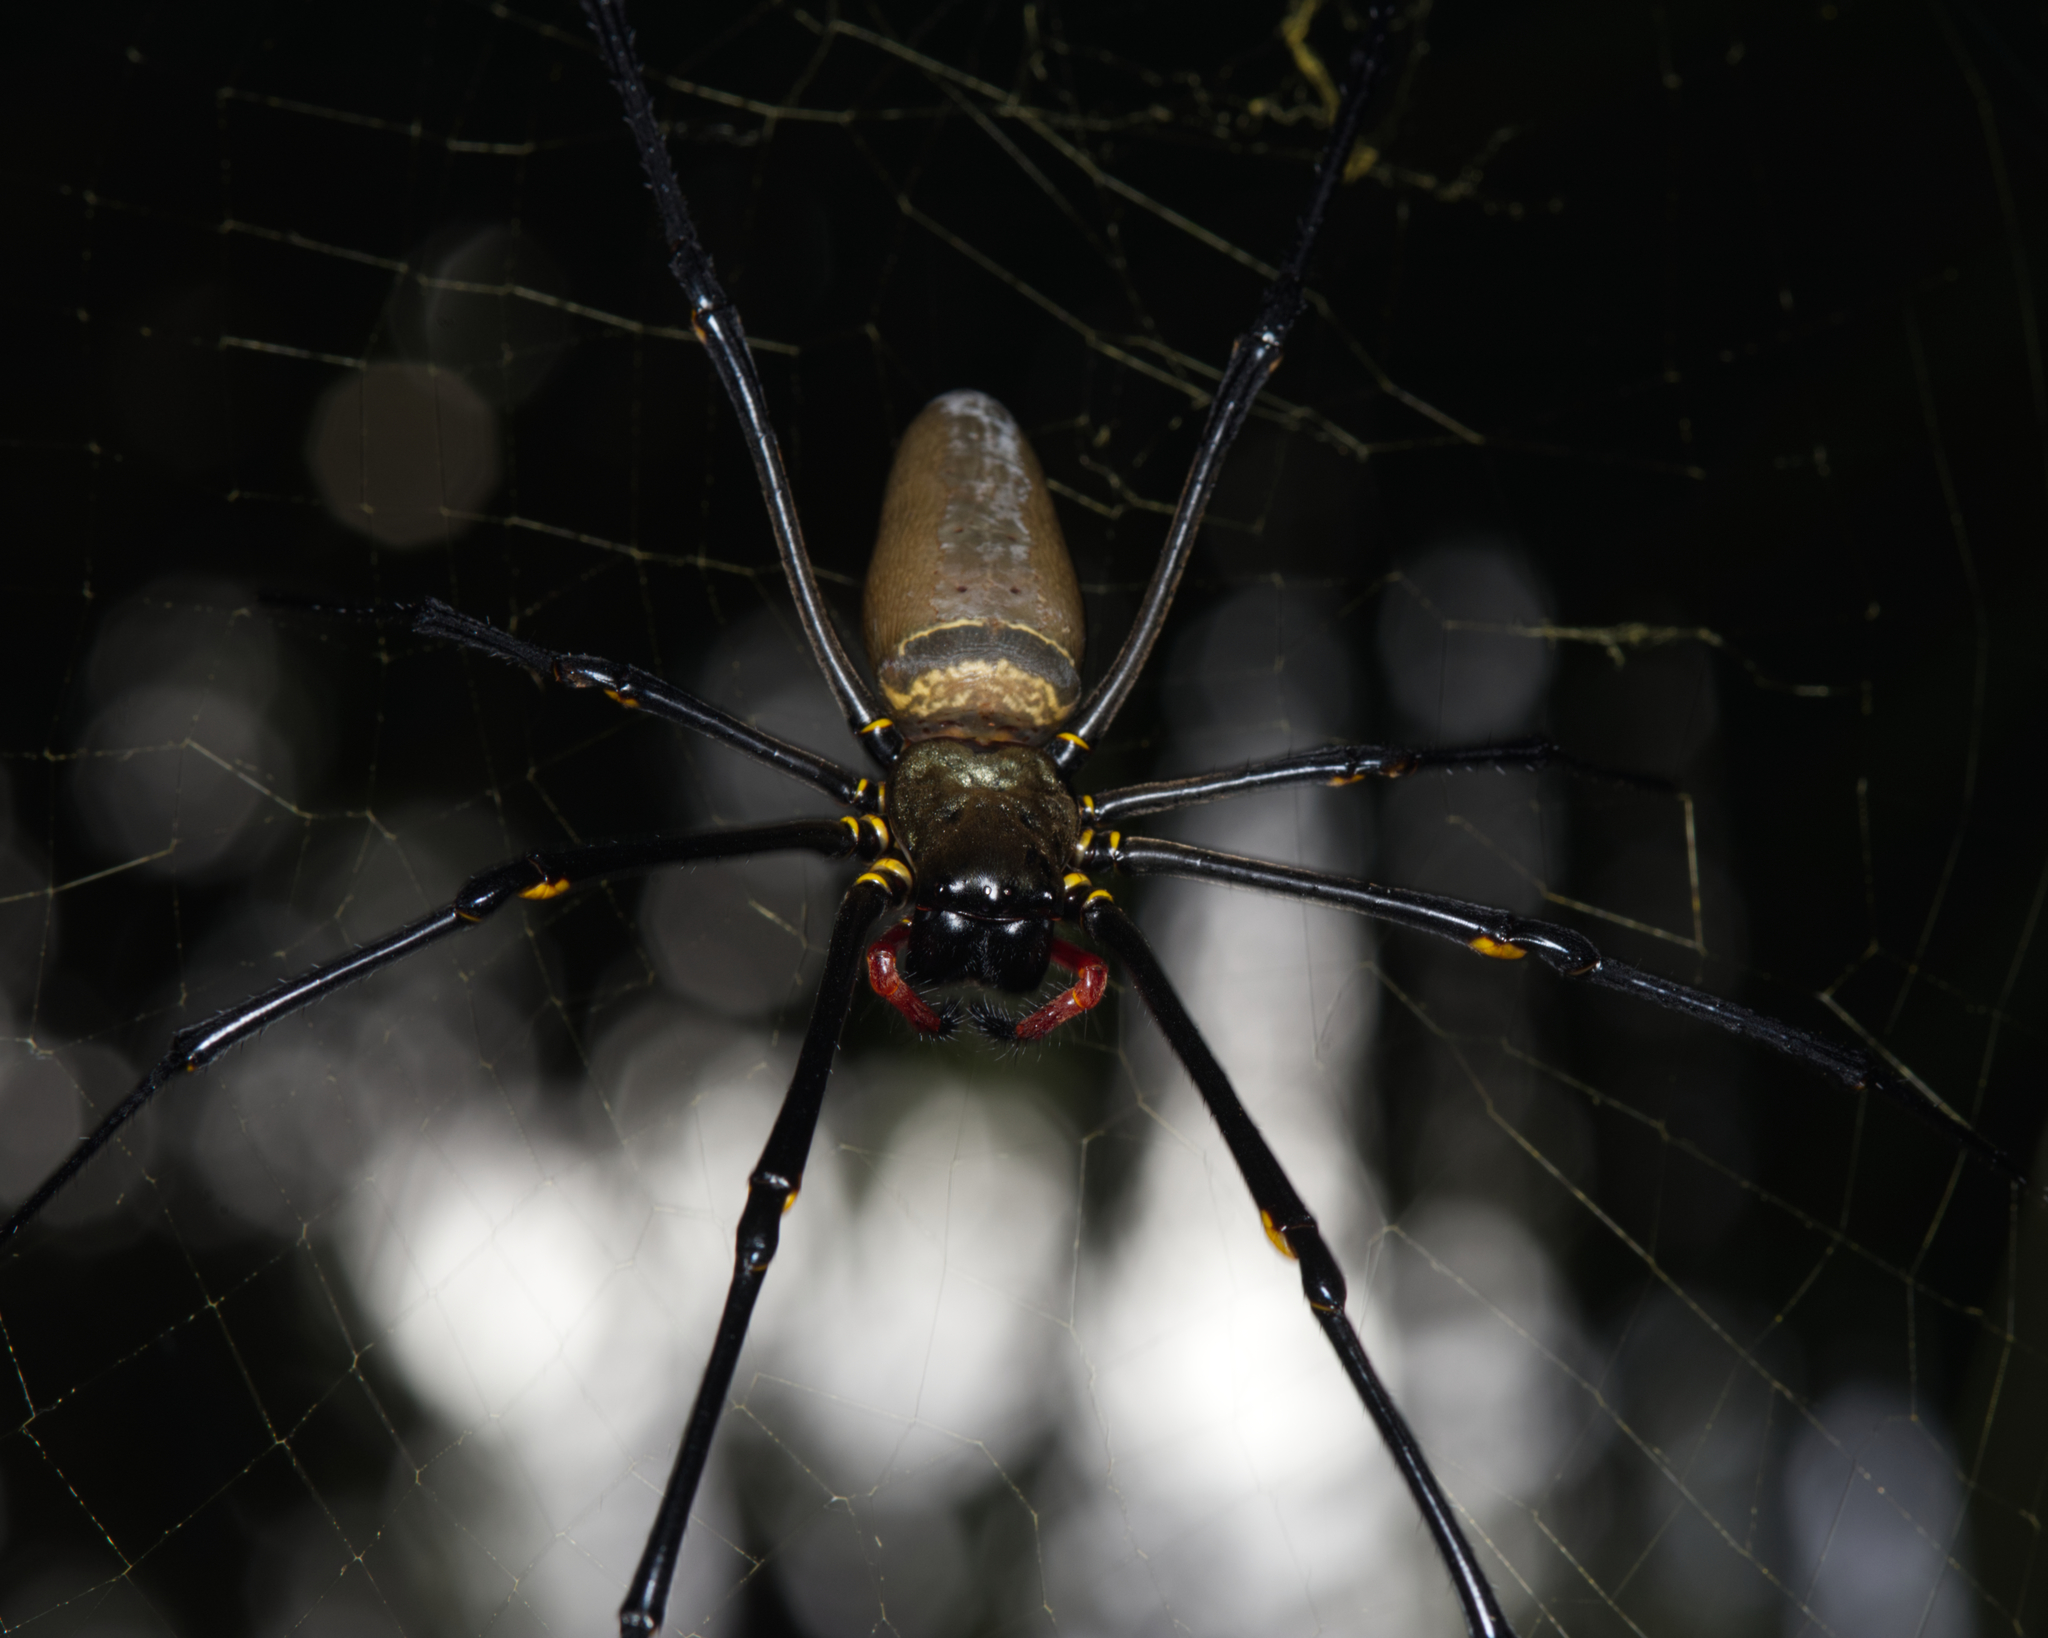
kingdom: Animalia
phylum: Arthropoda
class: Arachnida
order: Araneae
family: Araneidae
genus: Nephila
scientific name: Nephila pilipes
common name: Giant golden orb weaver
